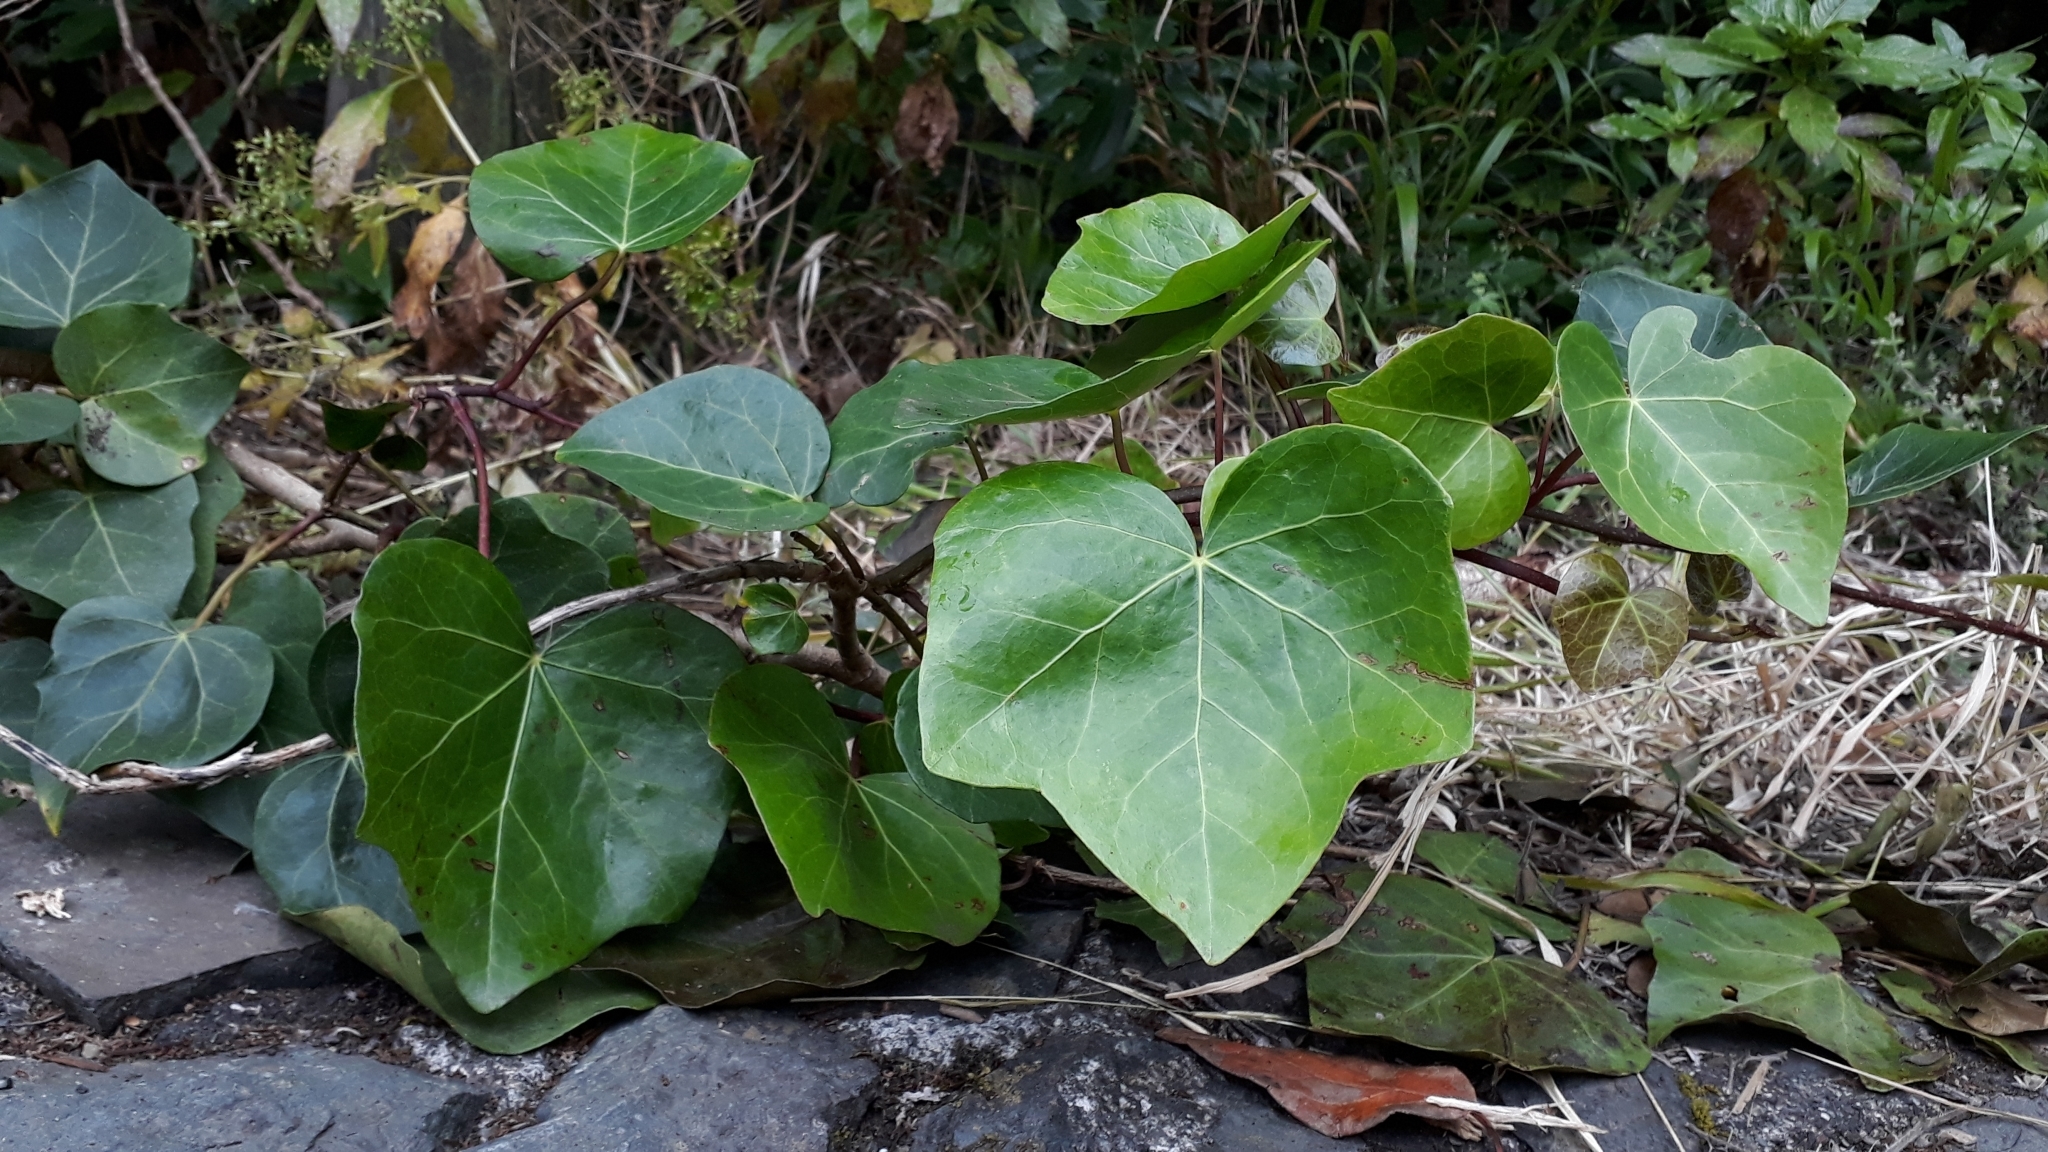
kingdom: Plantae
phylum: Tracheophyta
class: Magnoliopsida
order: Apiales
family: Araliaceae
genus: Hedera
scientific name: Hedera canariensis
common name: Madeira ivy
